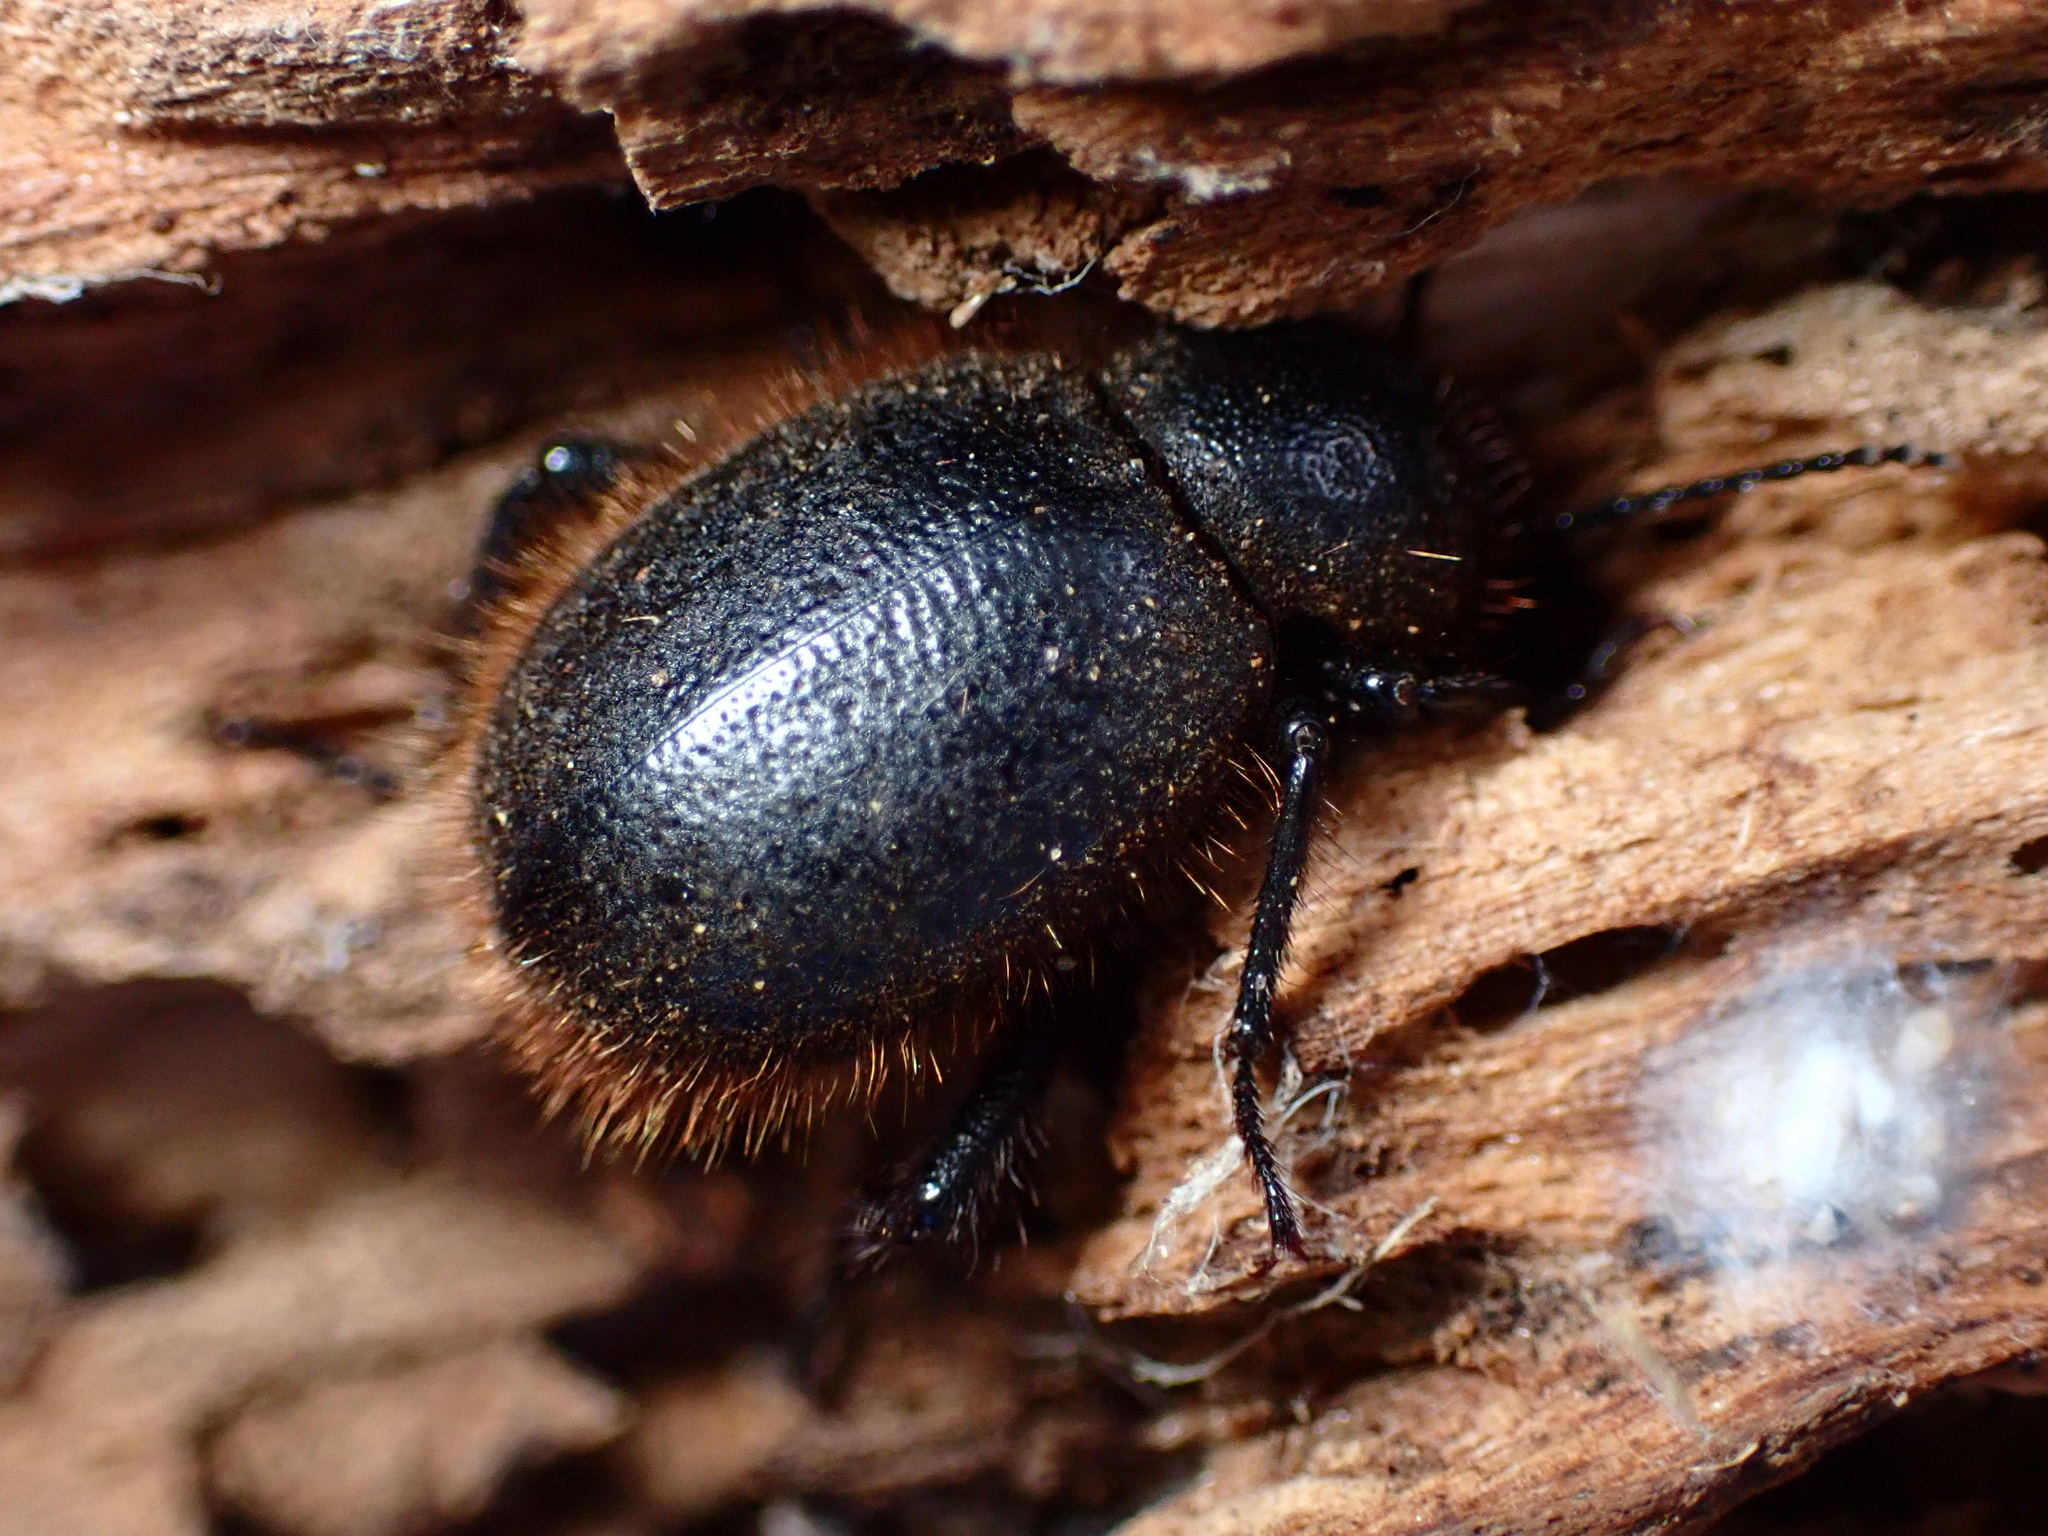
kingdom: Animalia
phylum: Arthropoda
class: Insecta
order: Coleoptera
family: Tenebrionidae
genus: Eleodes
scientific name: Eleodes osculans
